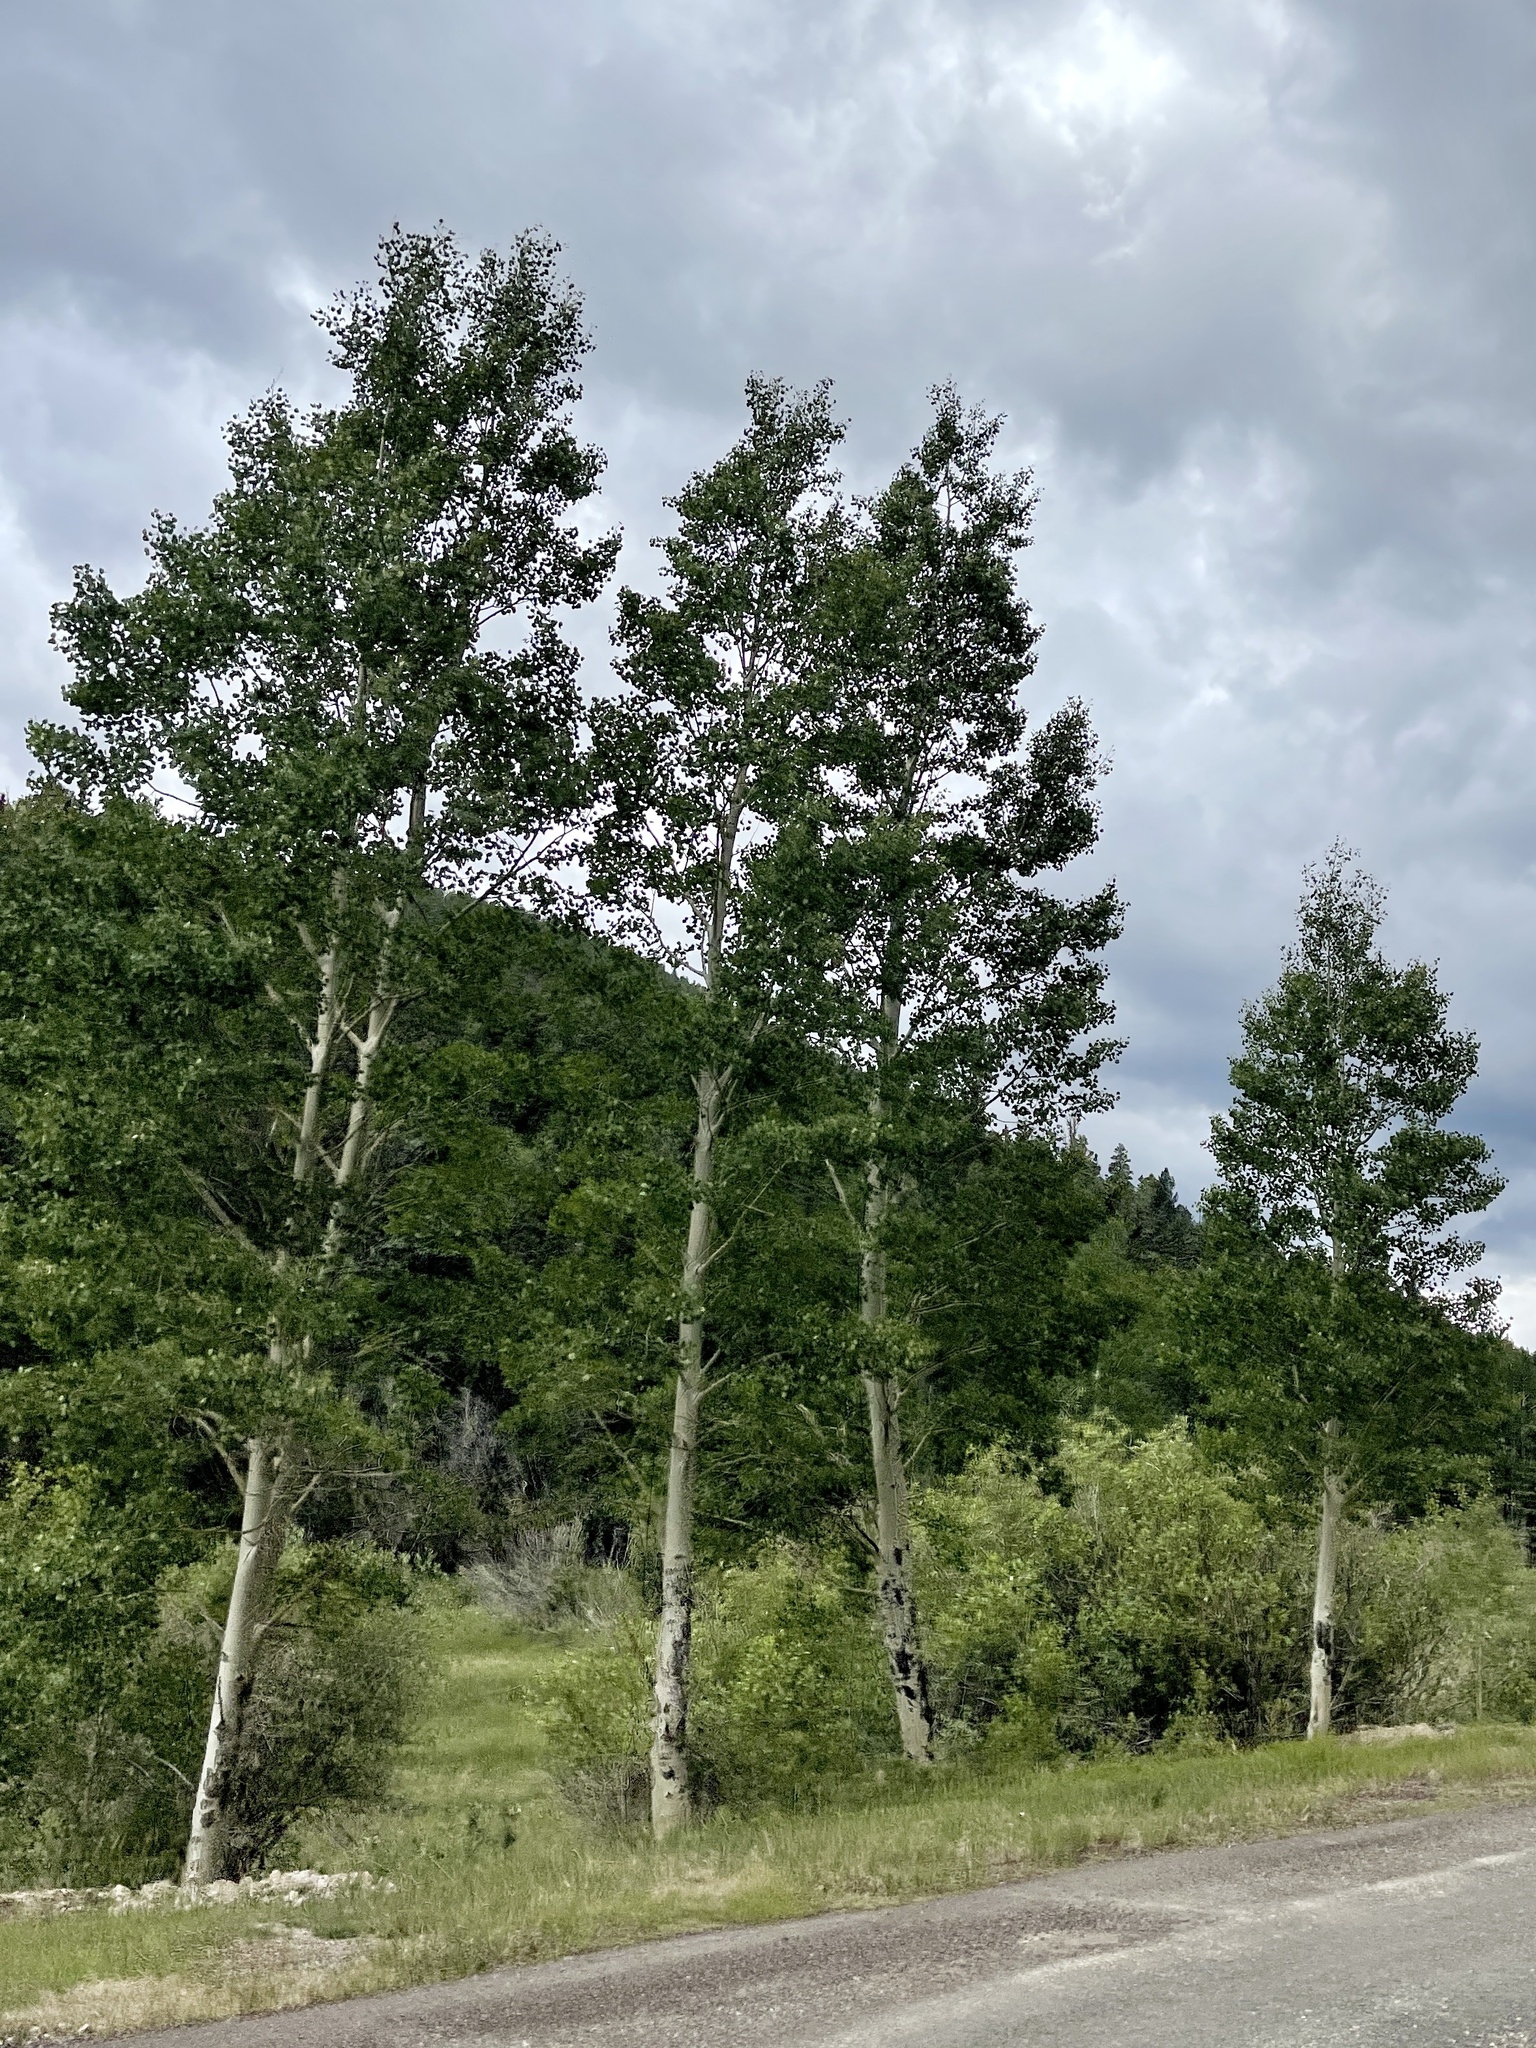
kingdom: Plantae
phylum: Tracheophyta
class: Magnoliopsida
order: Malpighiales
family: Salicaceae
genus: Populus
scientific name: Populus tremuloides
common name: Quaking aspen
